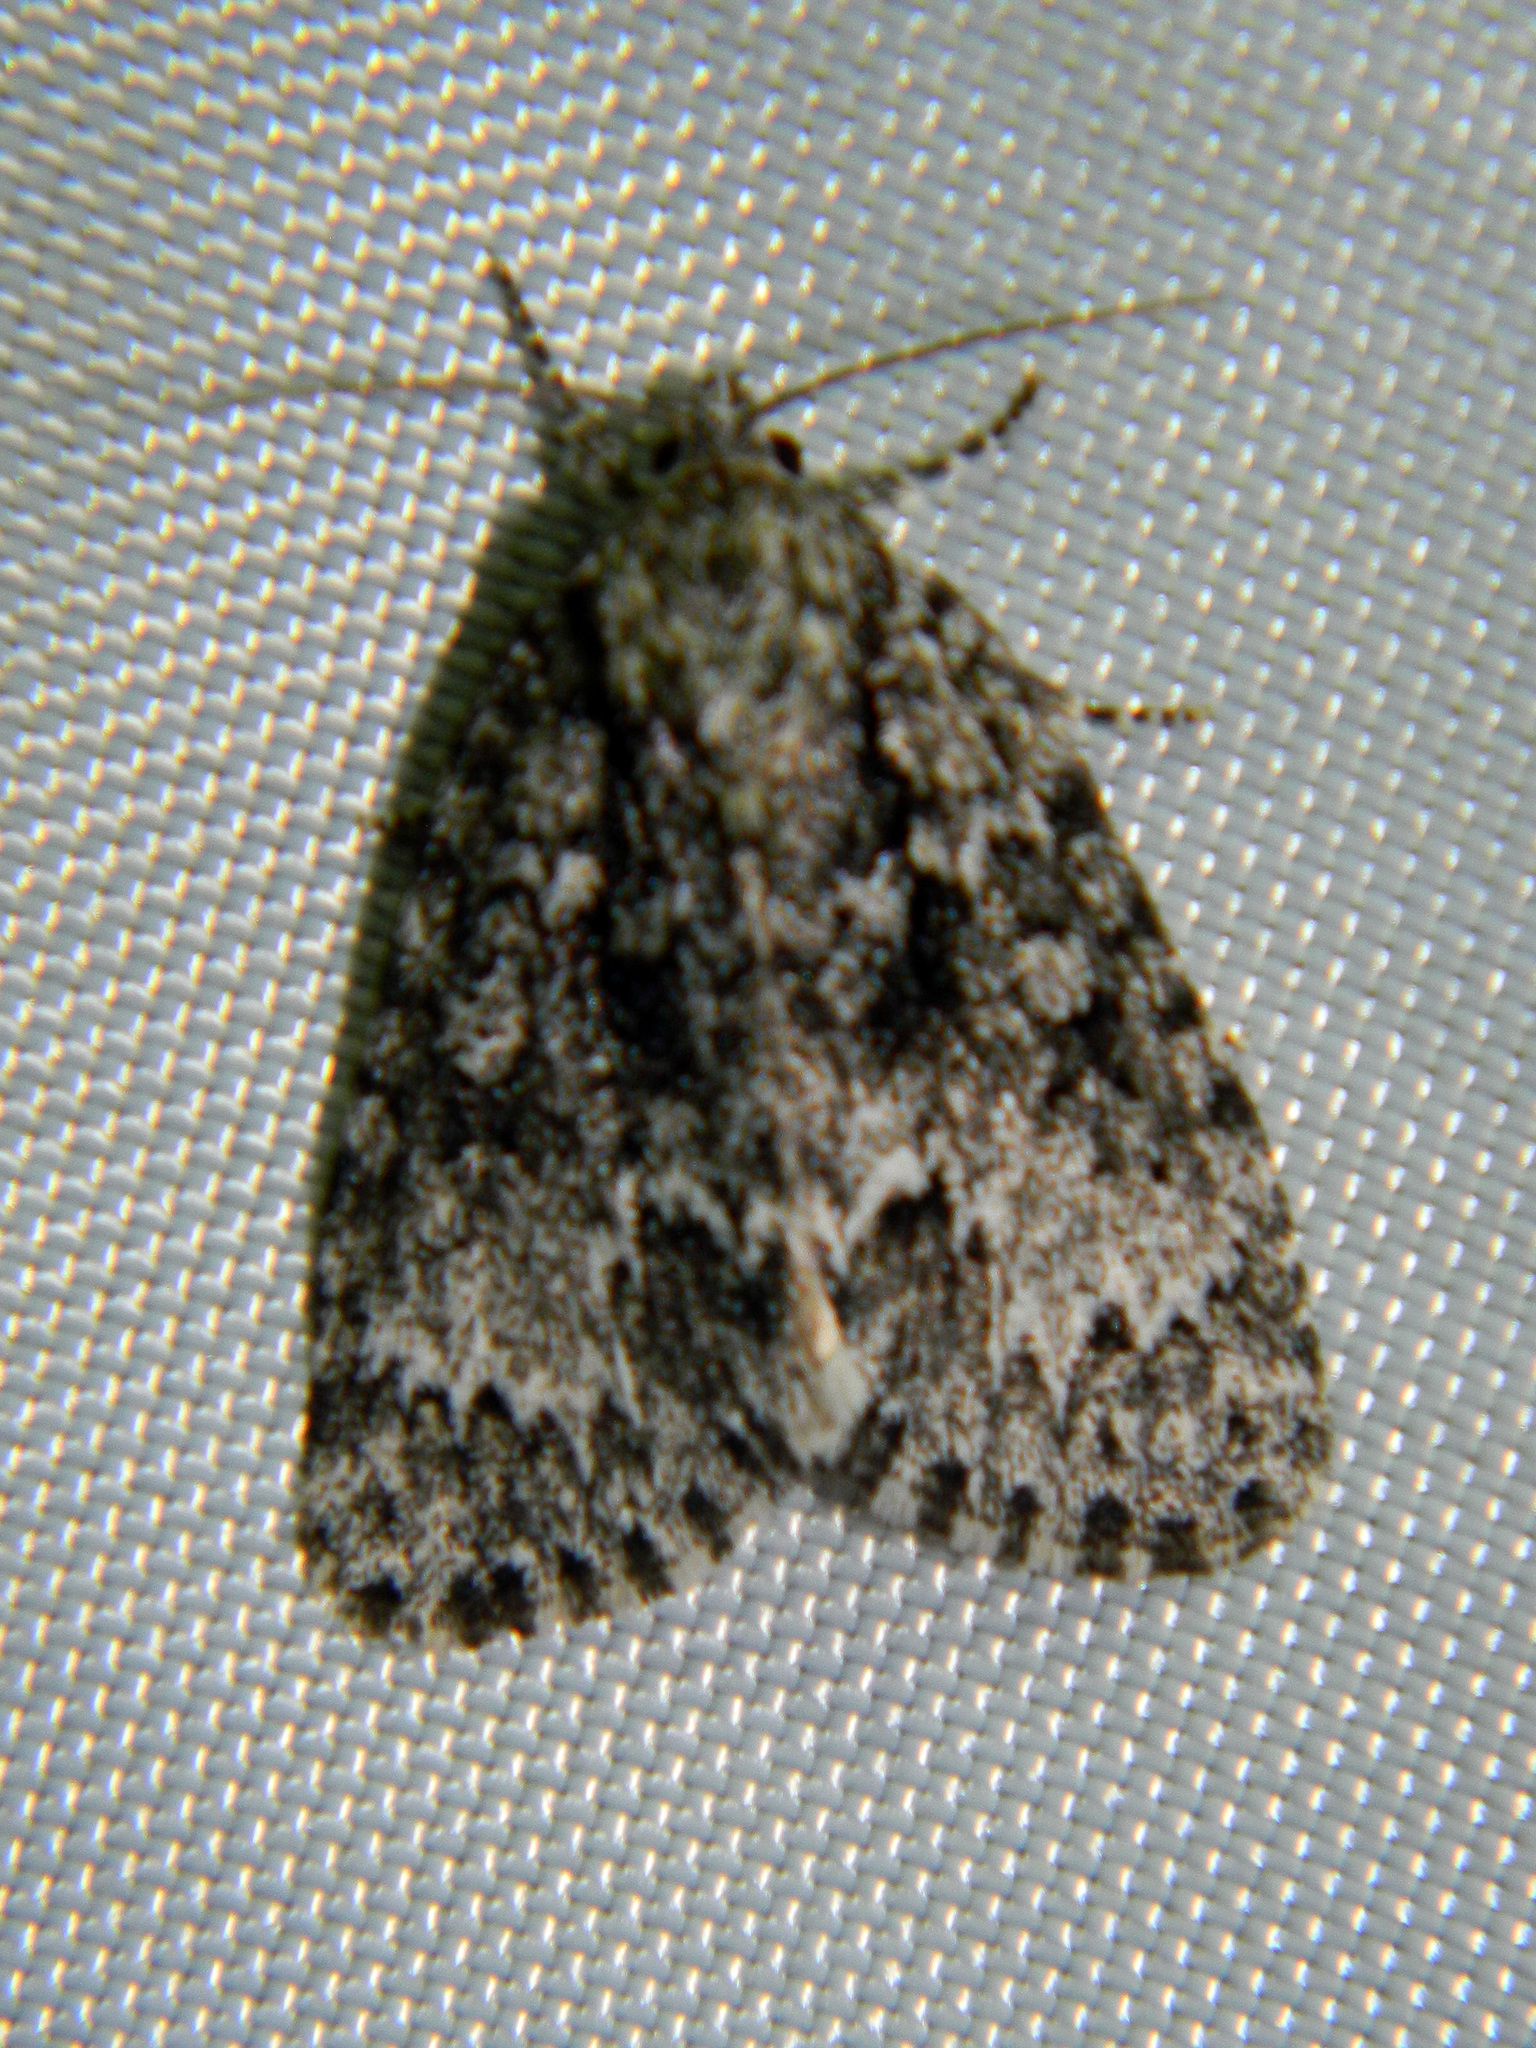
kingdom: Animalia
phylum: Arthropoda
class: Insecta
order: Lepidoptera
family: Noctuidae
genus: Acronicta
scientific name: Acronicta fragilis
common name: Fragile dagger
